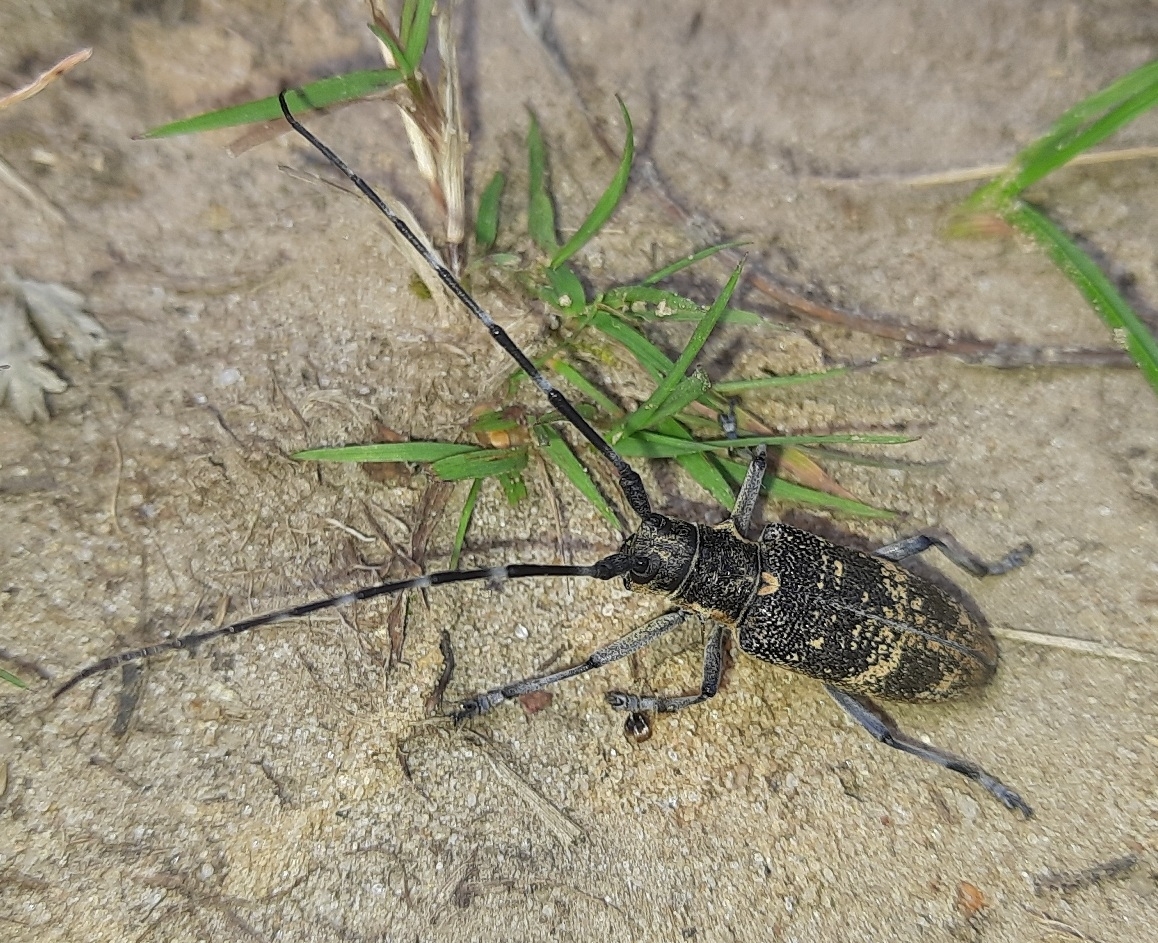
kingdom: Animalia
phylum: Arthropoda
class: Insecta
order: Coleoptera
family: Cerambycidae
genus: Monochamus
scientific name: Monochamus galloprovincialis
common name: Pine sawyer
